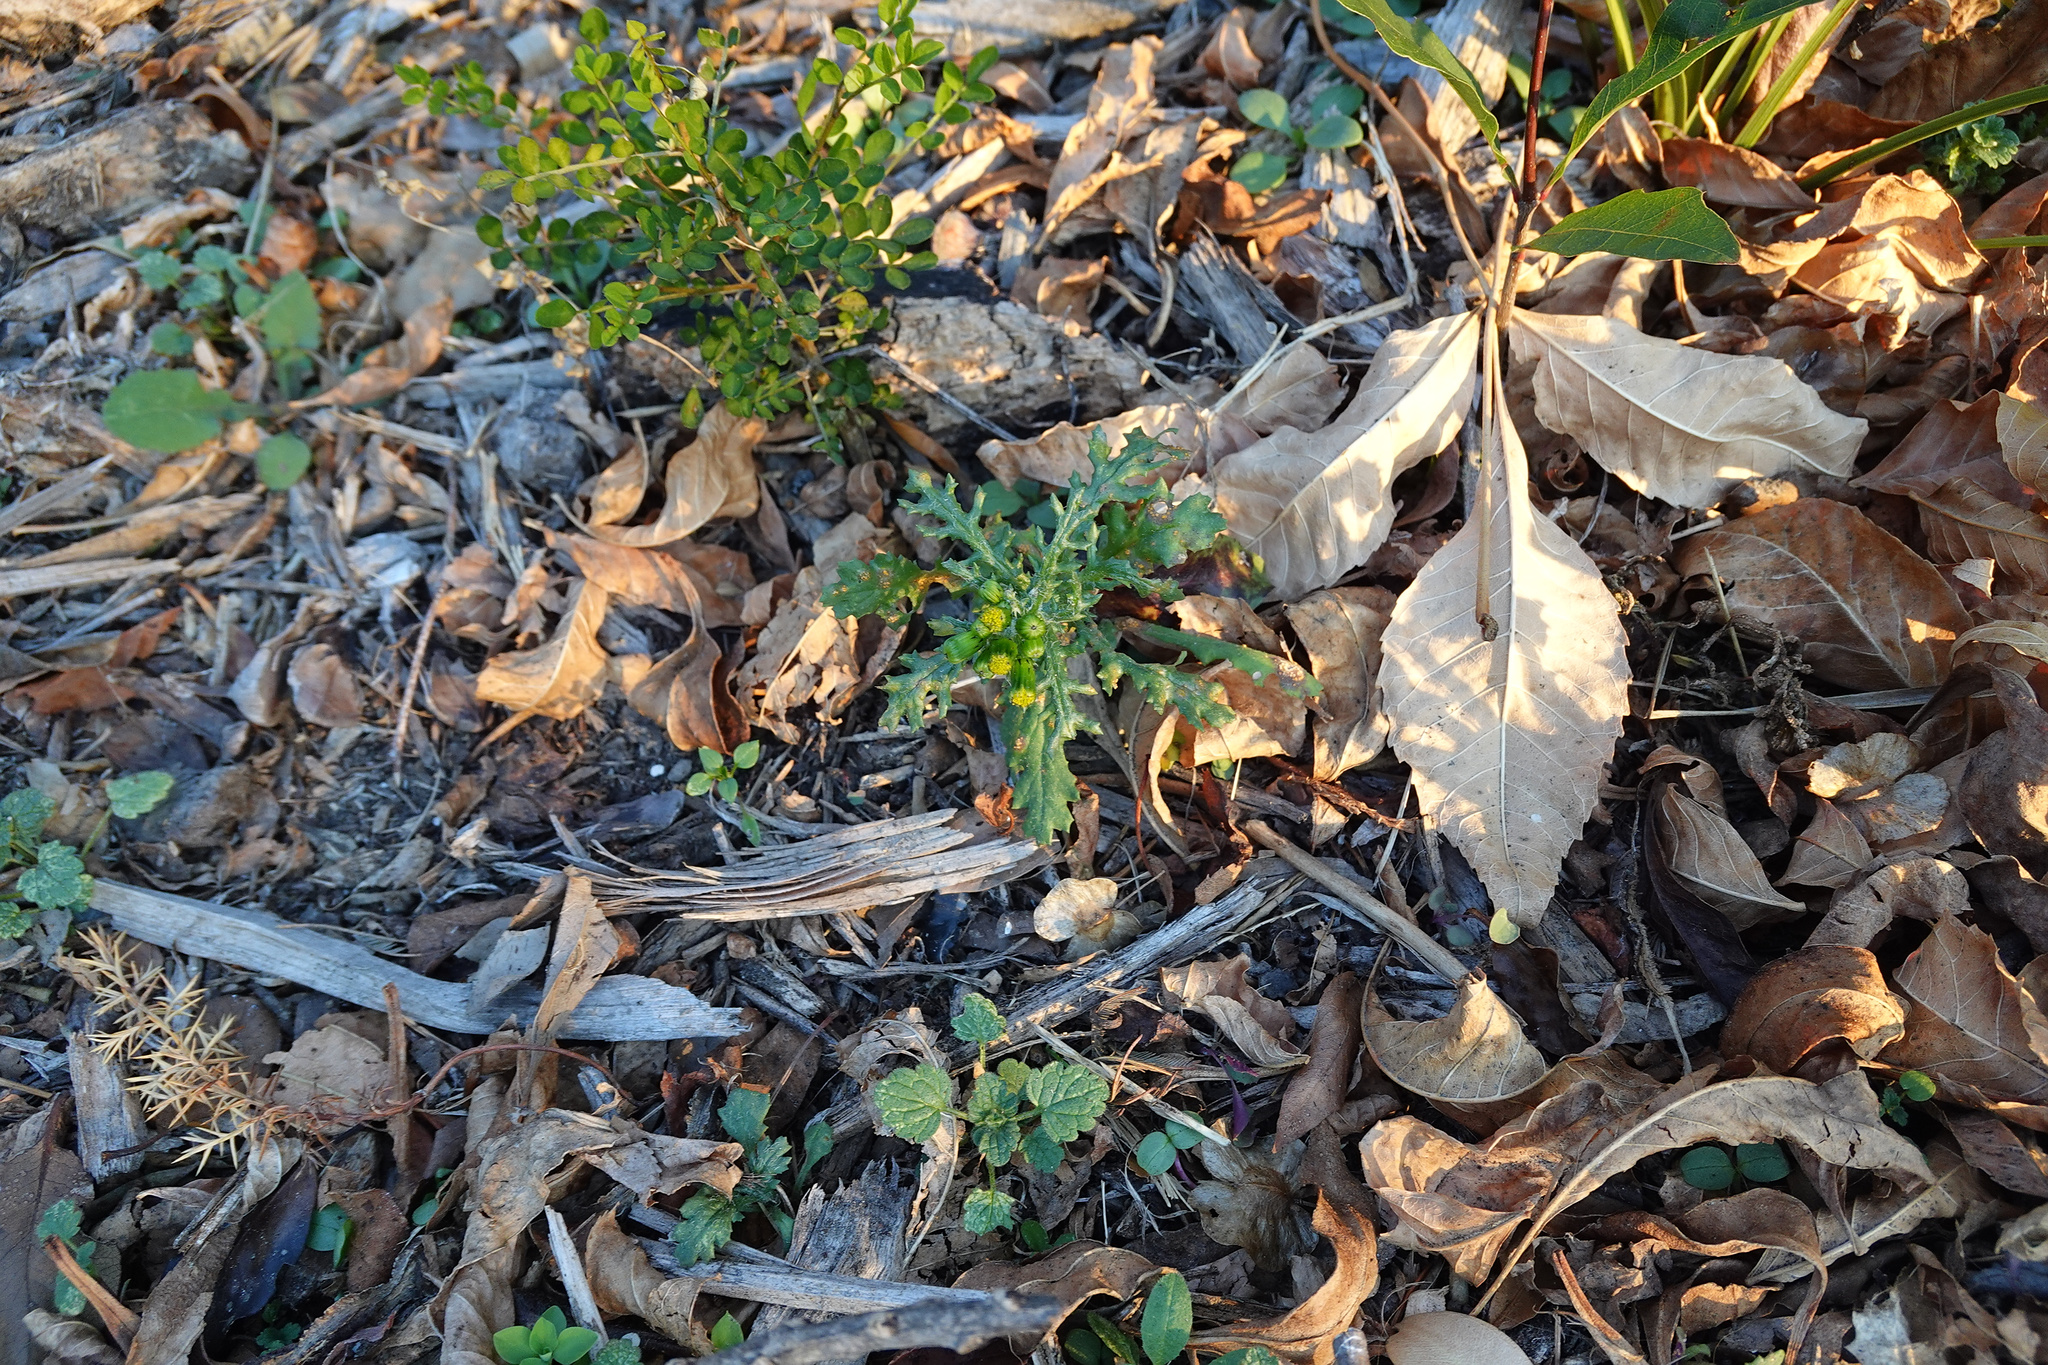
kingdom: Plantae
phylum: Tracheophyta
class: Magnoliopsida
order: Sapindales
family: Sapindaceae
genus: Dodonaea
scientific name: Dodonaea viscosa
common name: Hopbush
